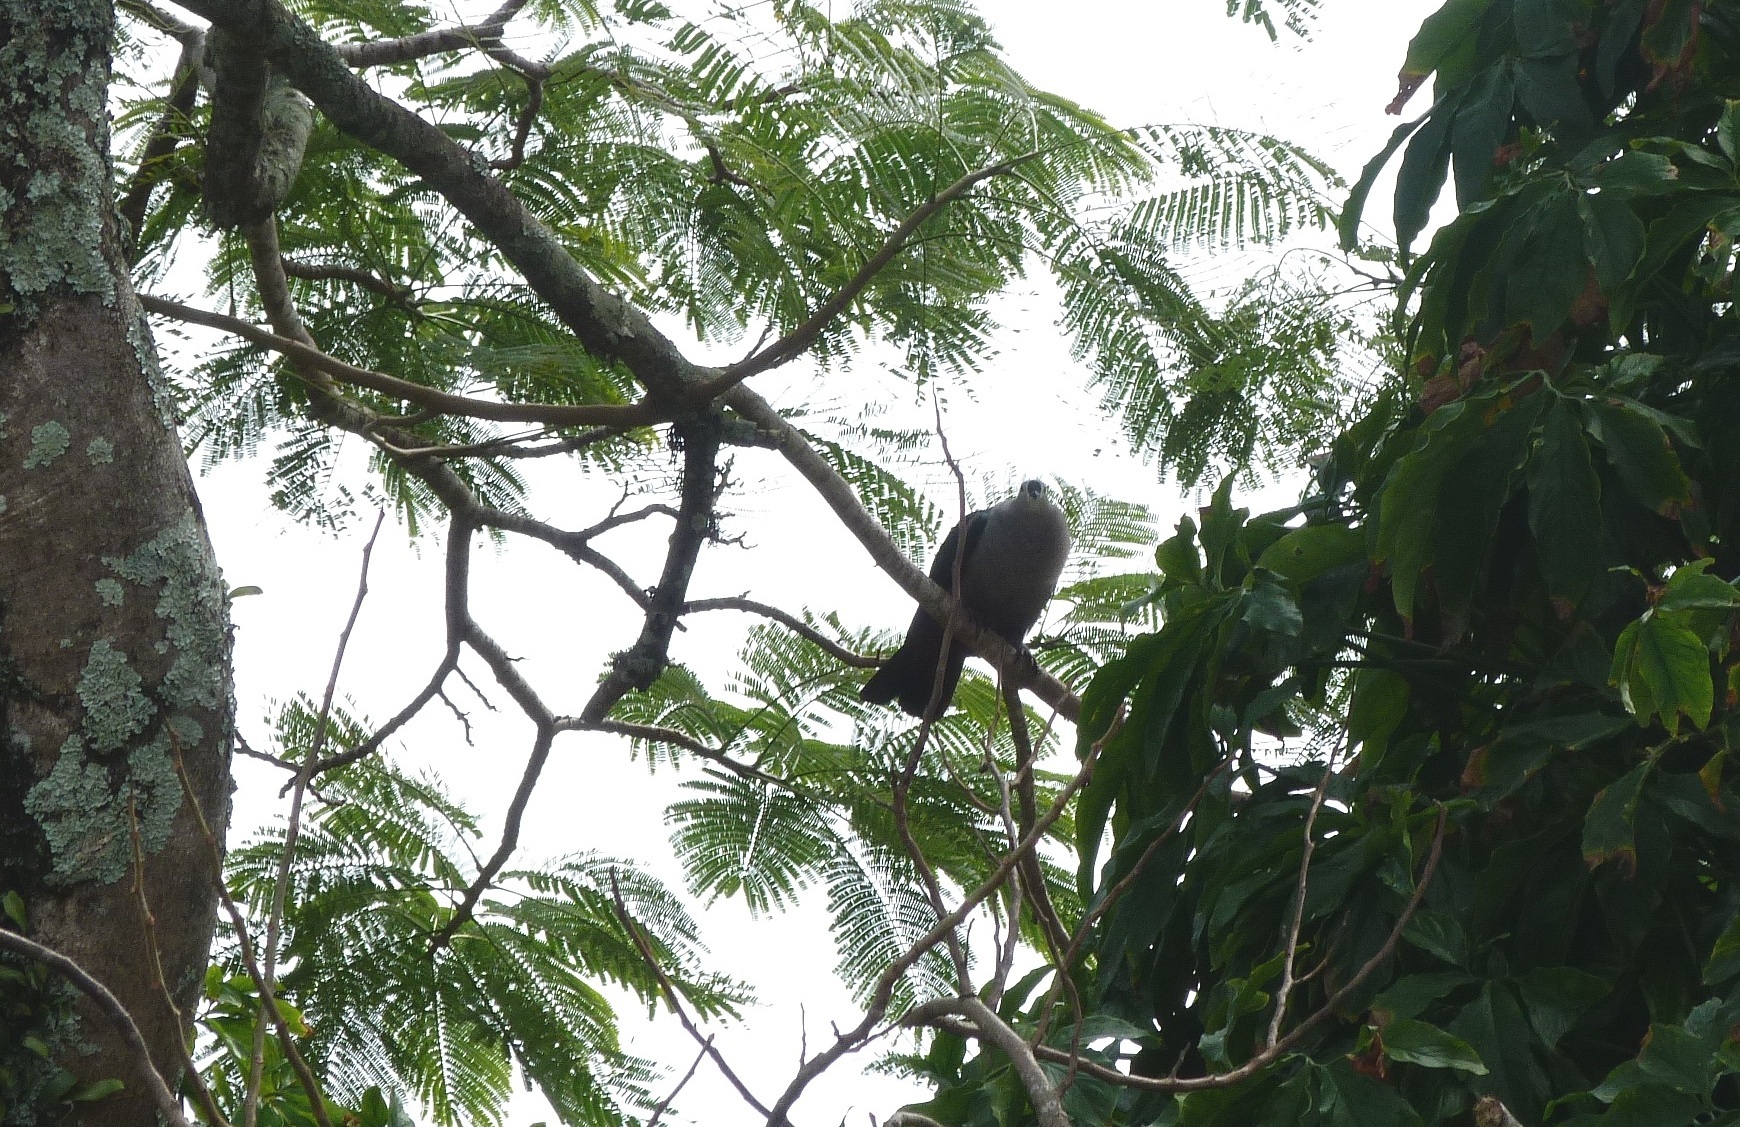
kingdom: Animalia
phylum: Chordata
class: Aves
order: Columbiformes
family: Columbidae
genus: Ducula
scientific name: Ducula pacifica
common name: Pacific imperial-pigeon
